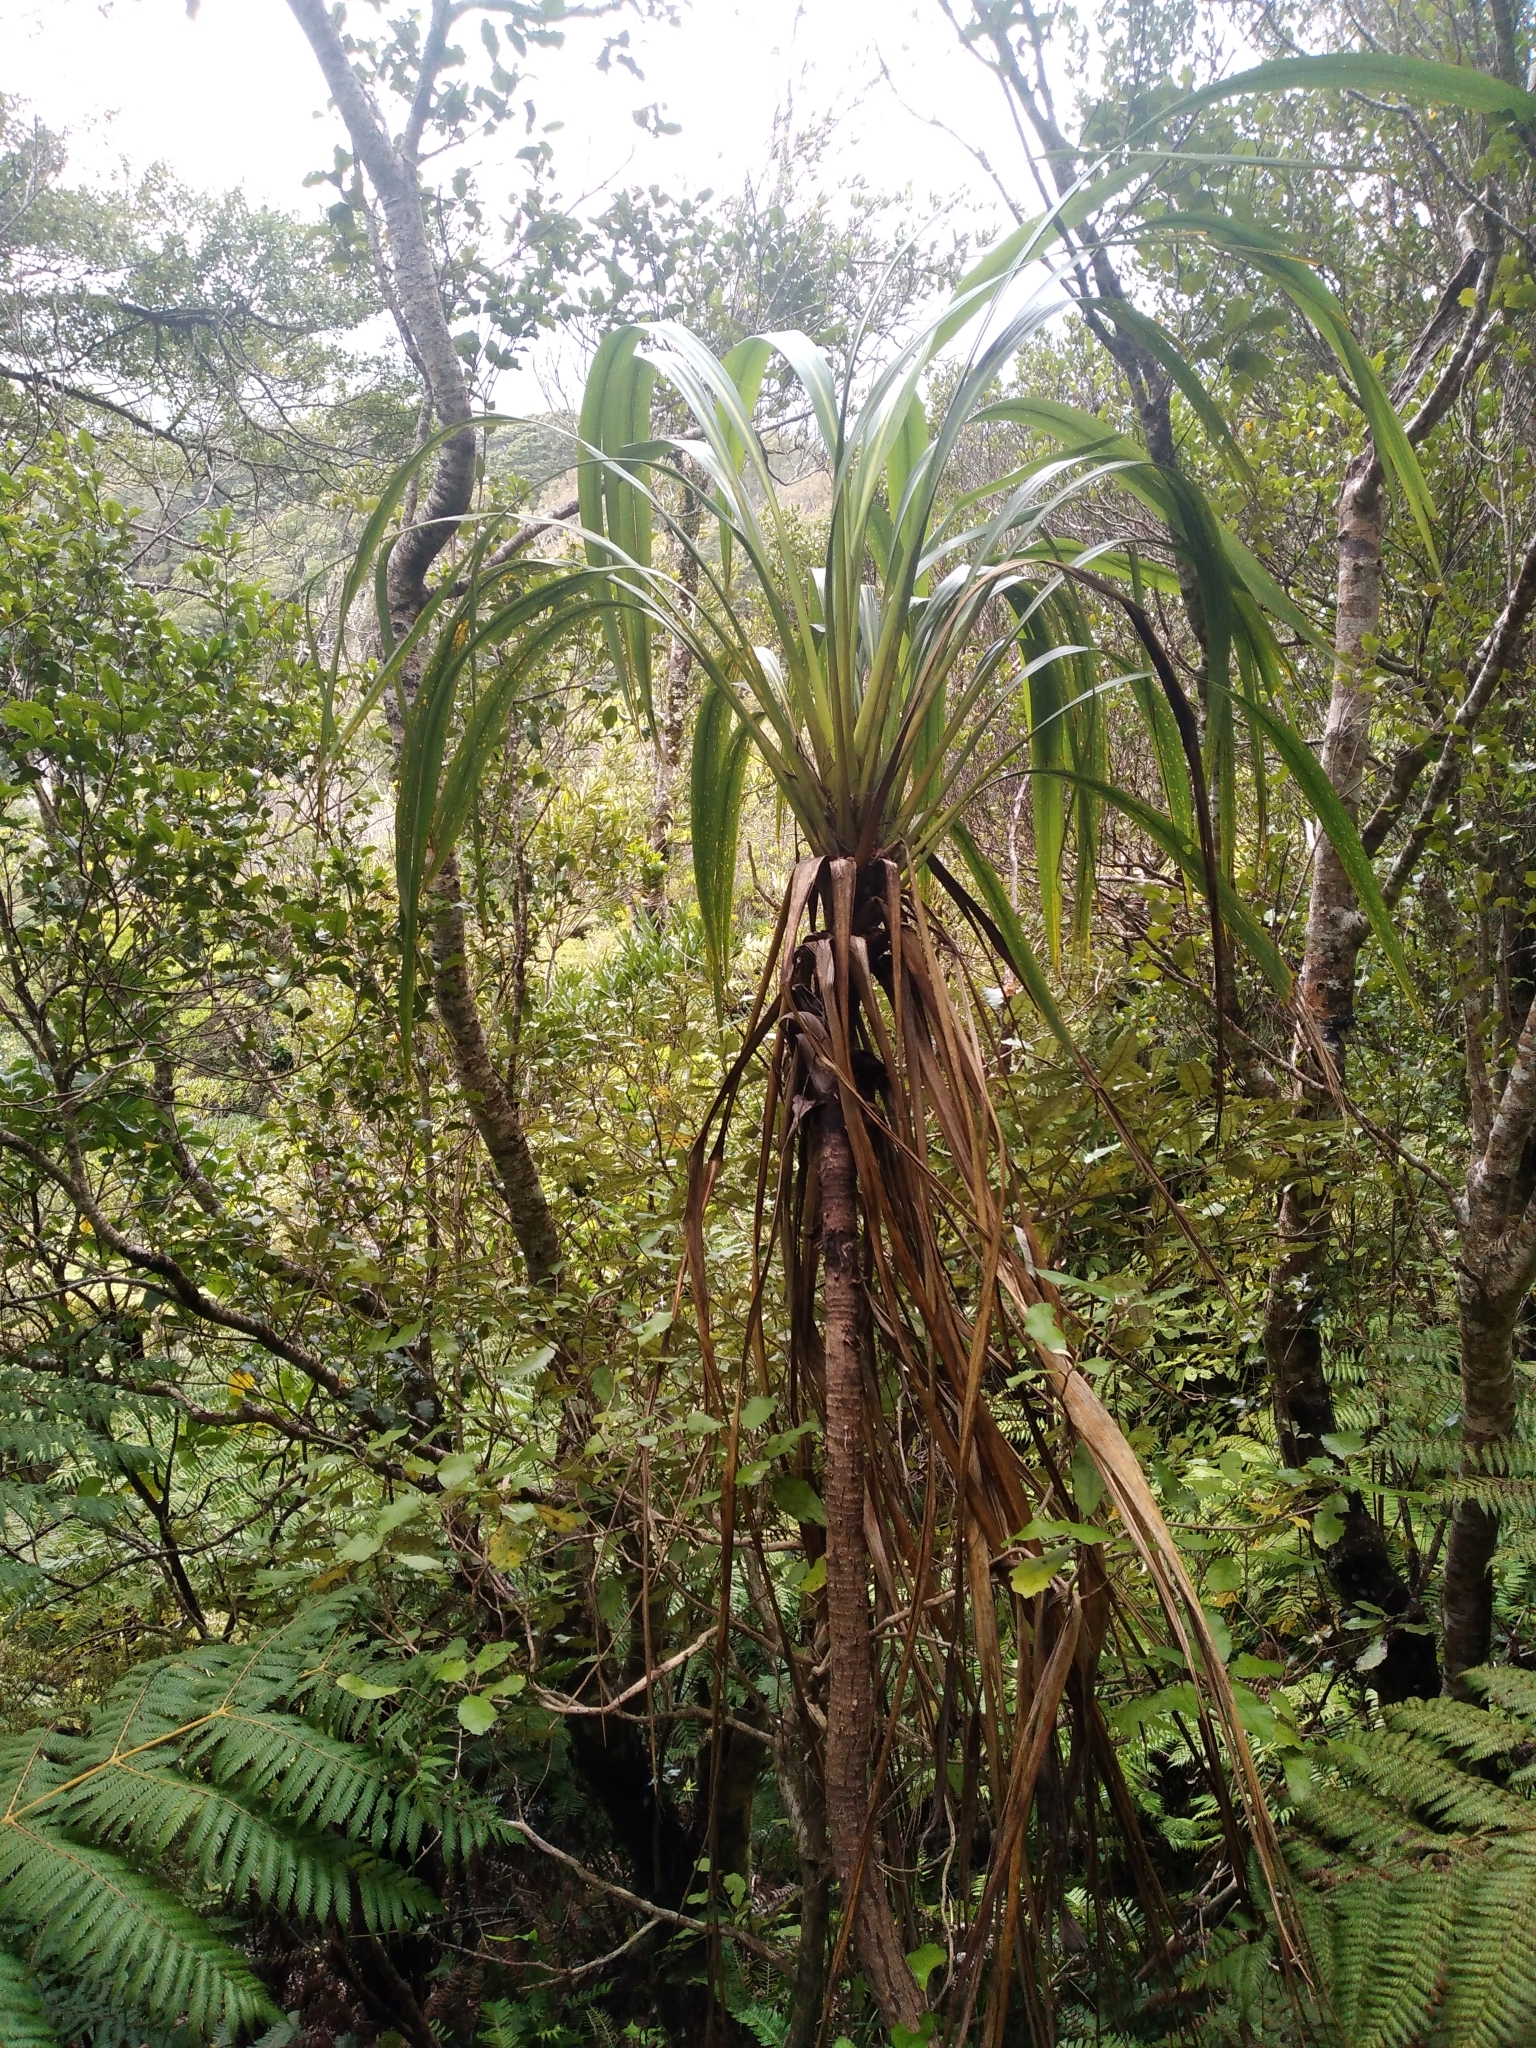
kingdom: Plantae
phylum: Tracheophyta
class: Liliopsida
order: Asparagales
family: Asparagaceae
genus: Cordyline
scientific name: Cordyline banksii
